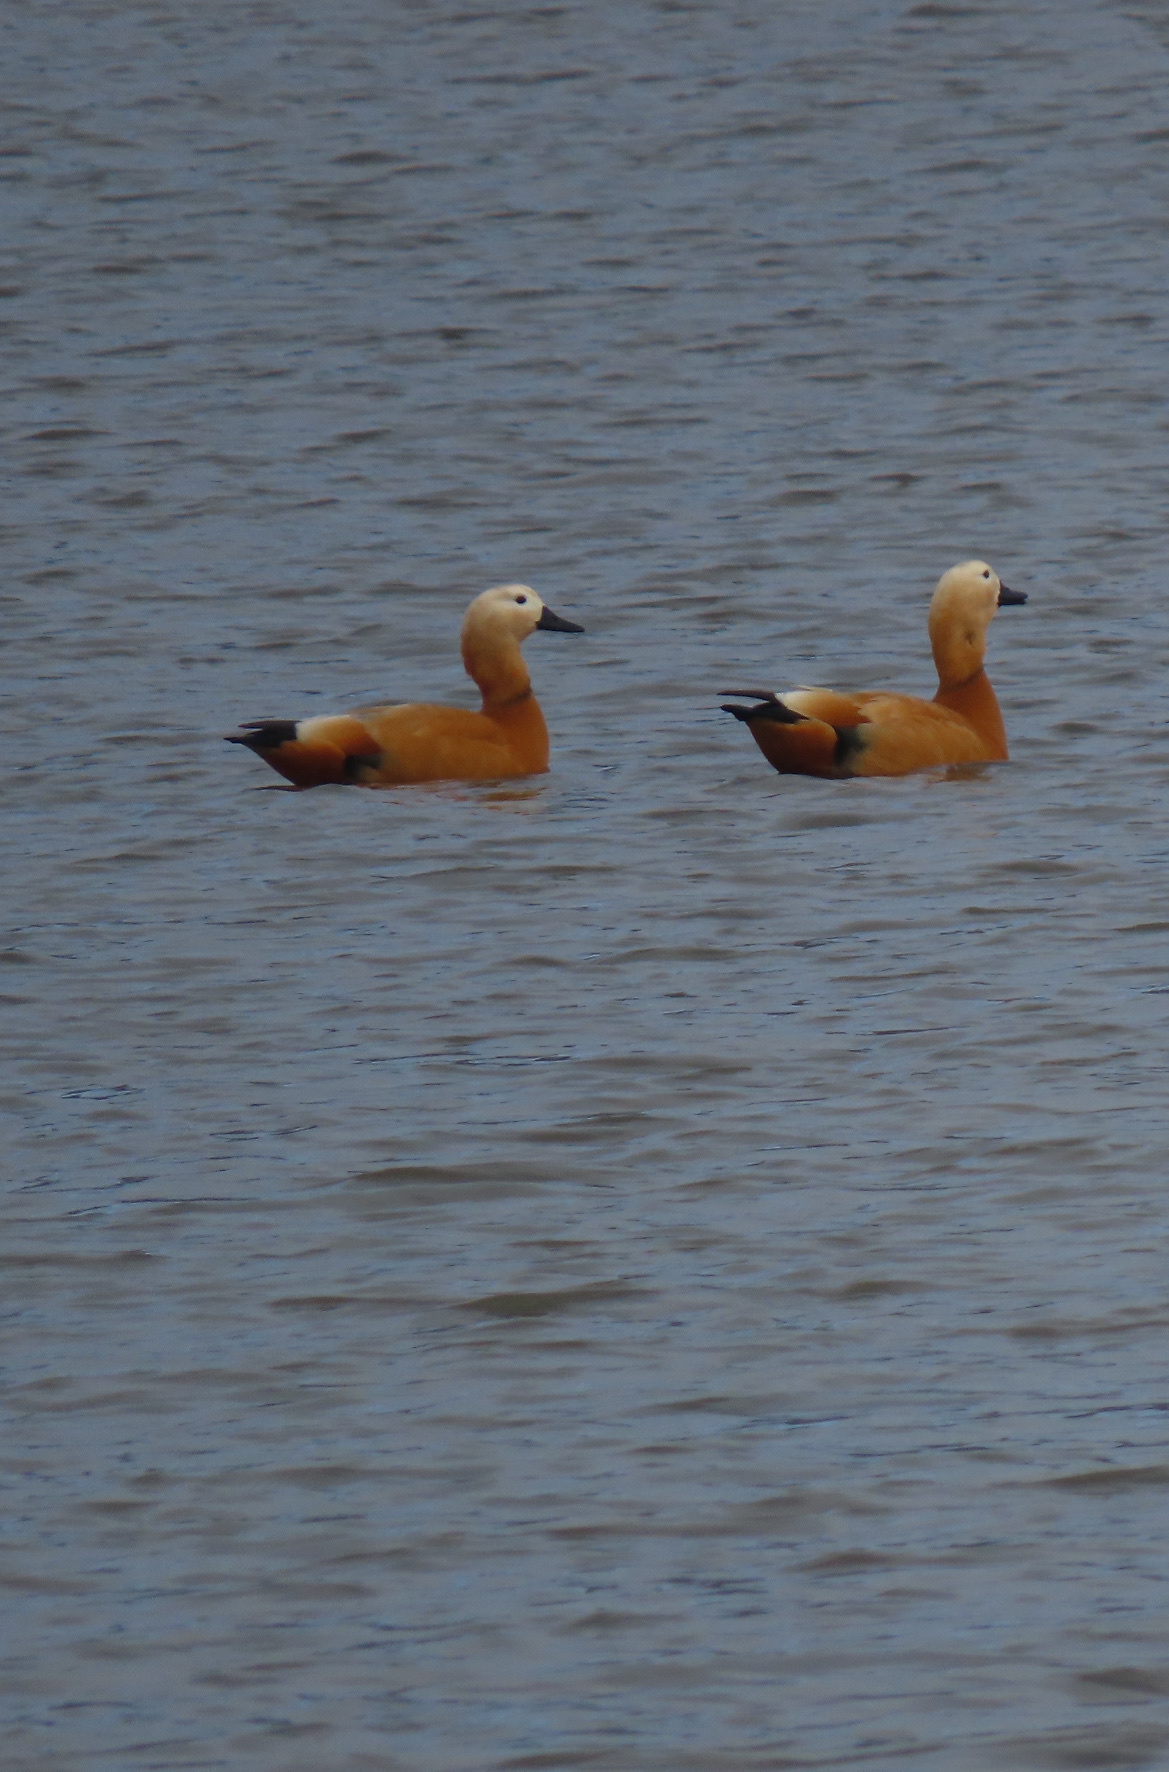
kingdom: Animalia
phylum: Chordata
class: Aves
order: Anseriformes
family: Anatidae
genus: Tadorna
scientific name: Tadorna ferruginea
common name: Ruddy shelduck
